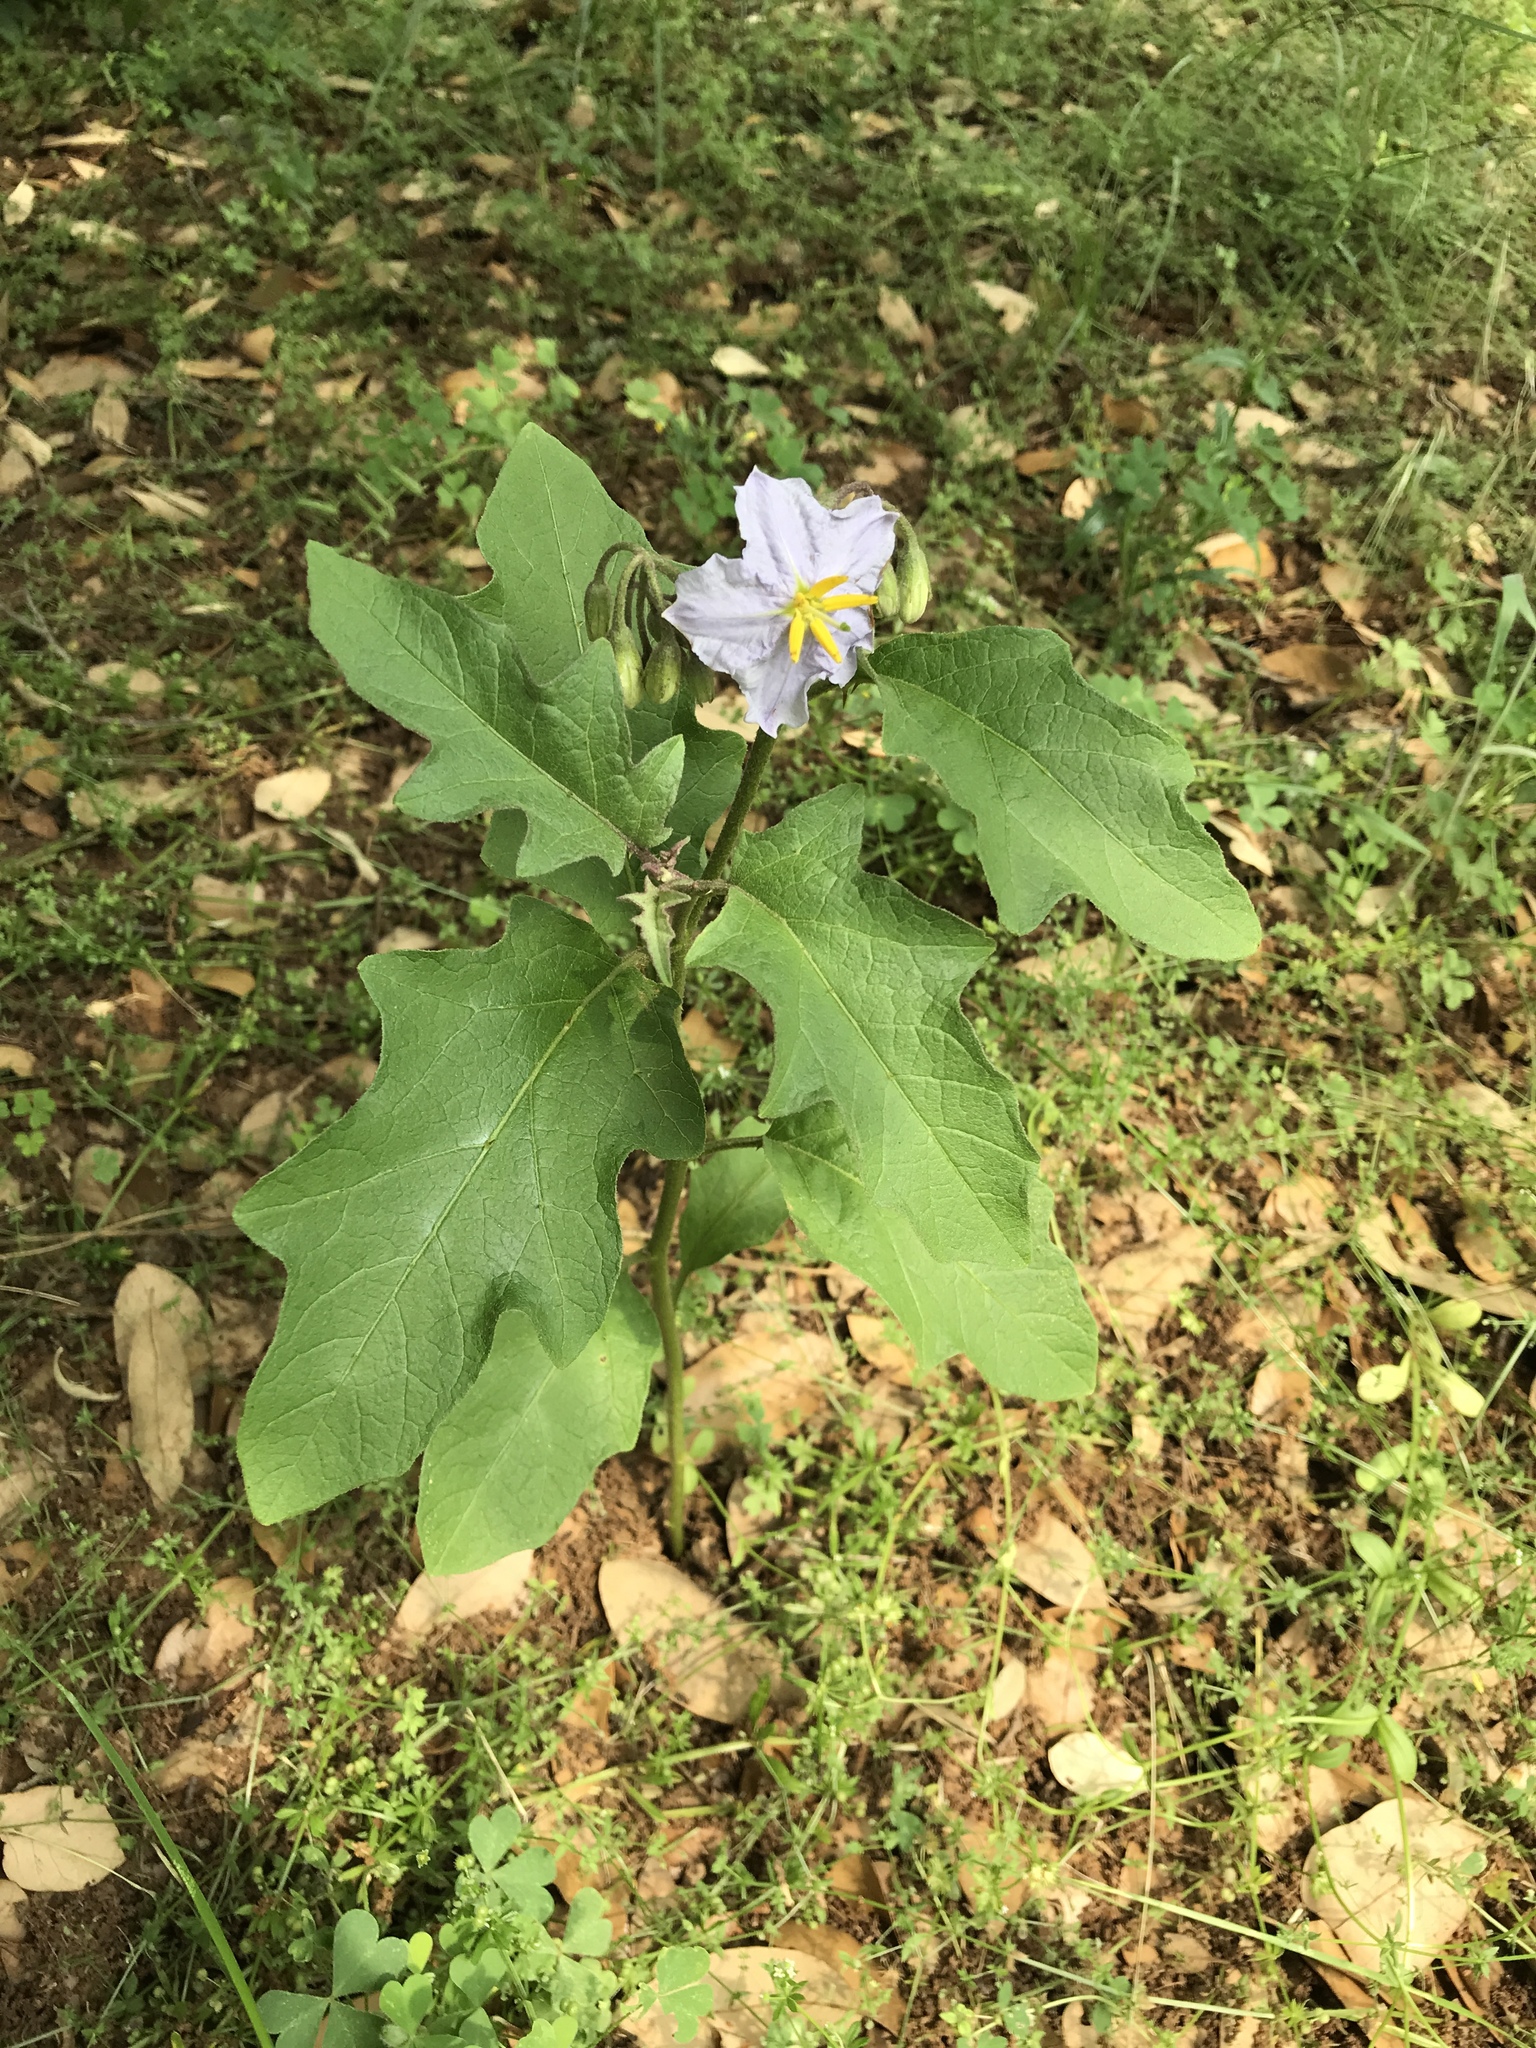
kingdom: Plantae
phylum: Tracheophyta
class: Magnoliopsida
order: Solanales
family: Solanaceae
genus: Solanum
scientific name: Solanum dimidiatum
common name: Carolina horse-nettle
